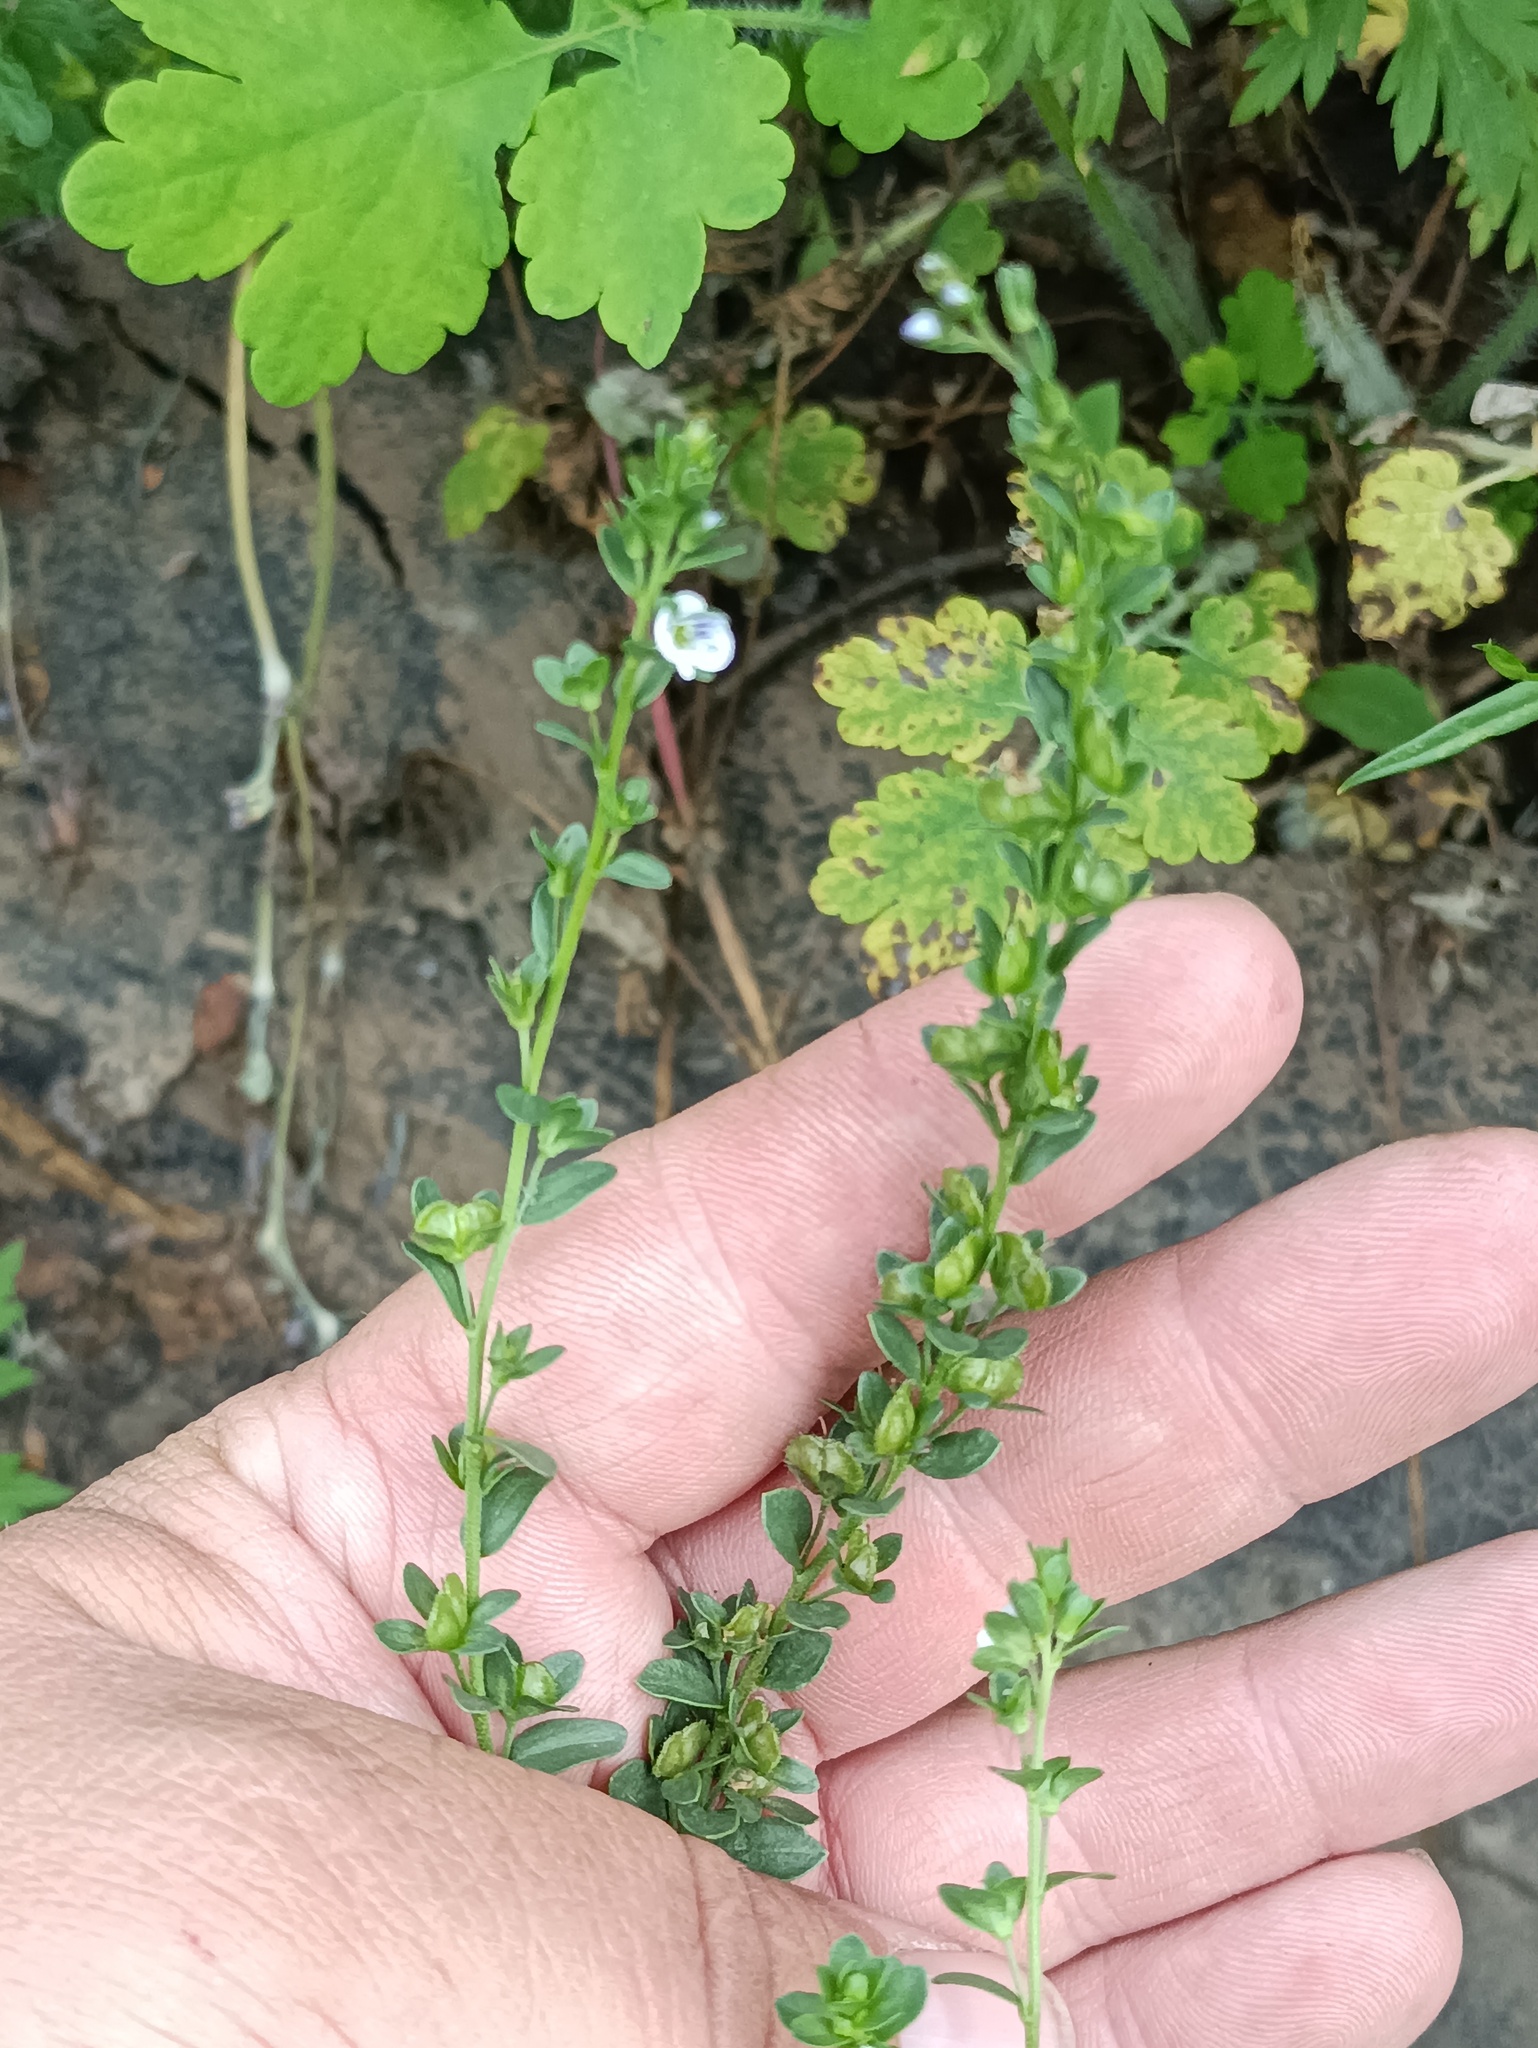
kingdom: Plantae
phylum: Tracheophyta
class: Magnoliopsida
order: Lamiales
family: Plantaginaceae
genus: Veronica
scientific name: Veronica serpyllifolia
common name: Thyme-leaved speedwell
